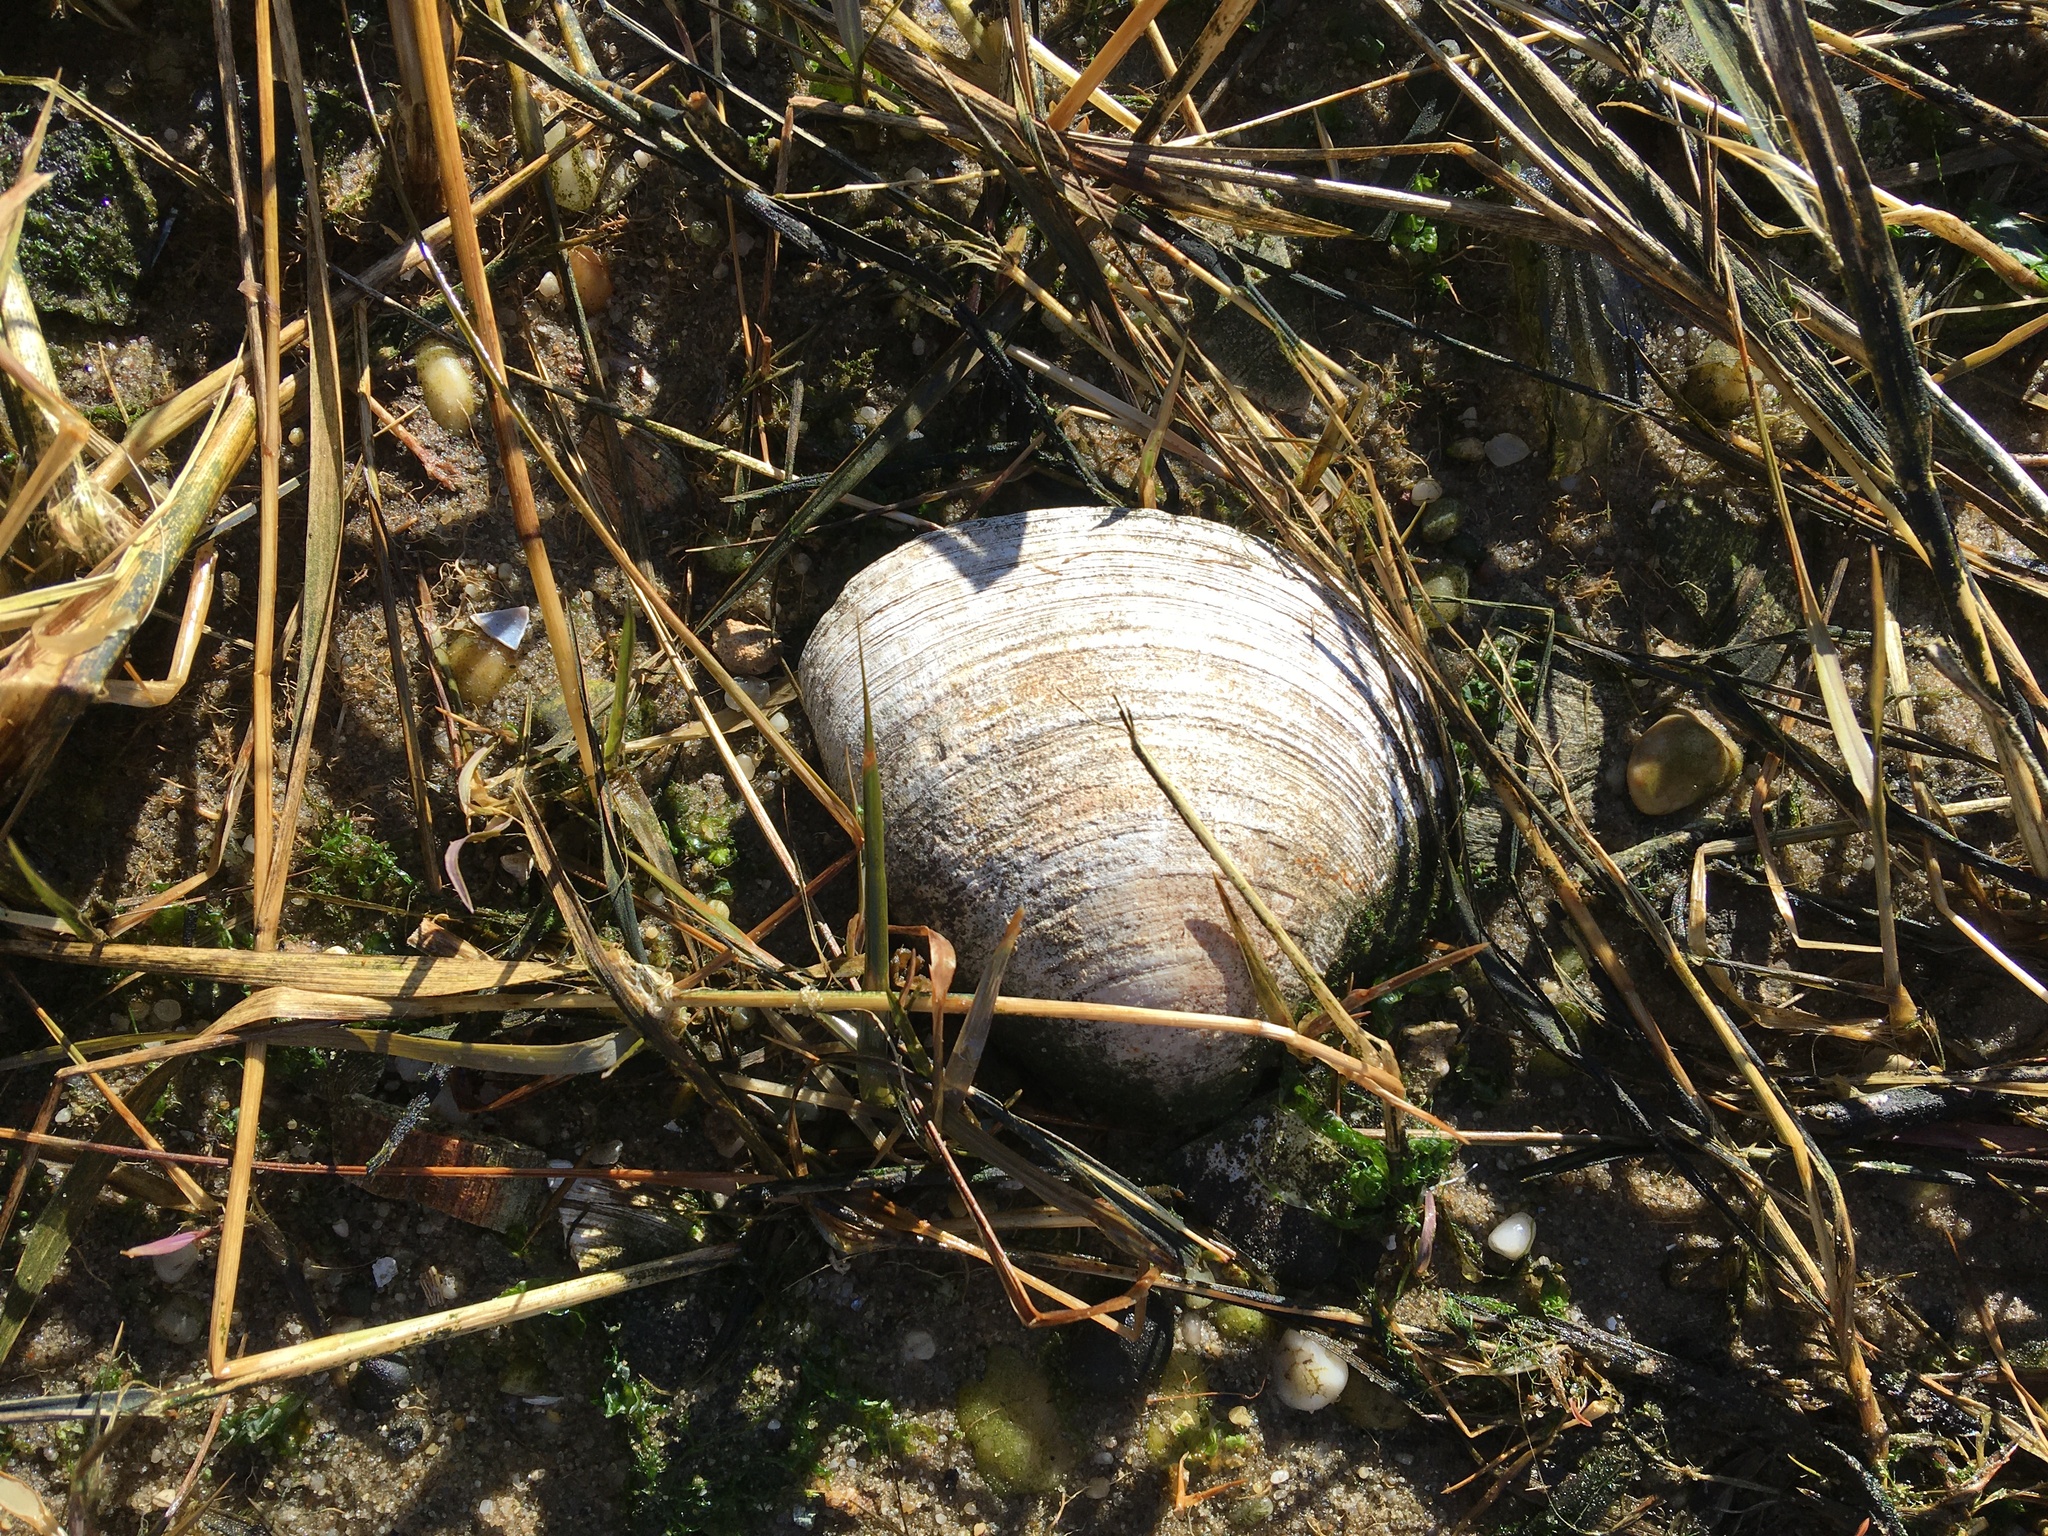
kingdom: Animalia
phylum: Mollusca
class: Bivalvia
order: Venerida
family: Veneridae
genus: Mercenaria
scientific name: Mercenaria mercenaria
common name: American hard-shelled clam
